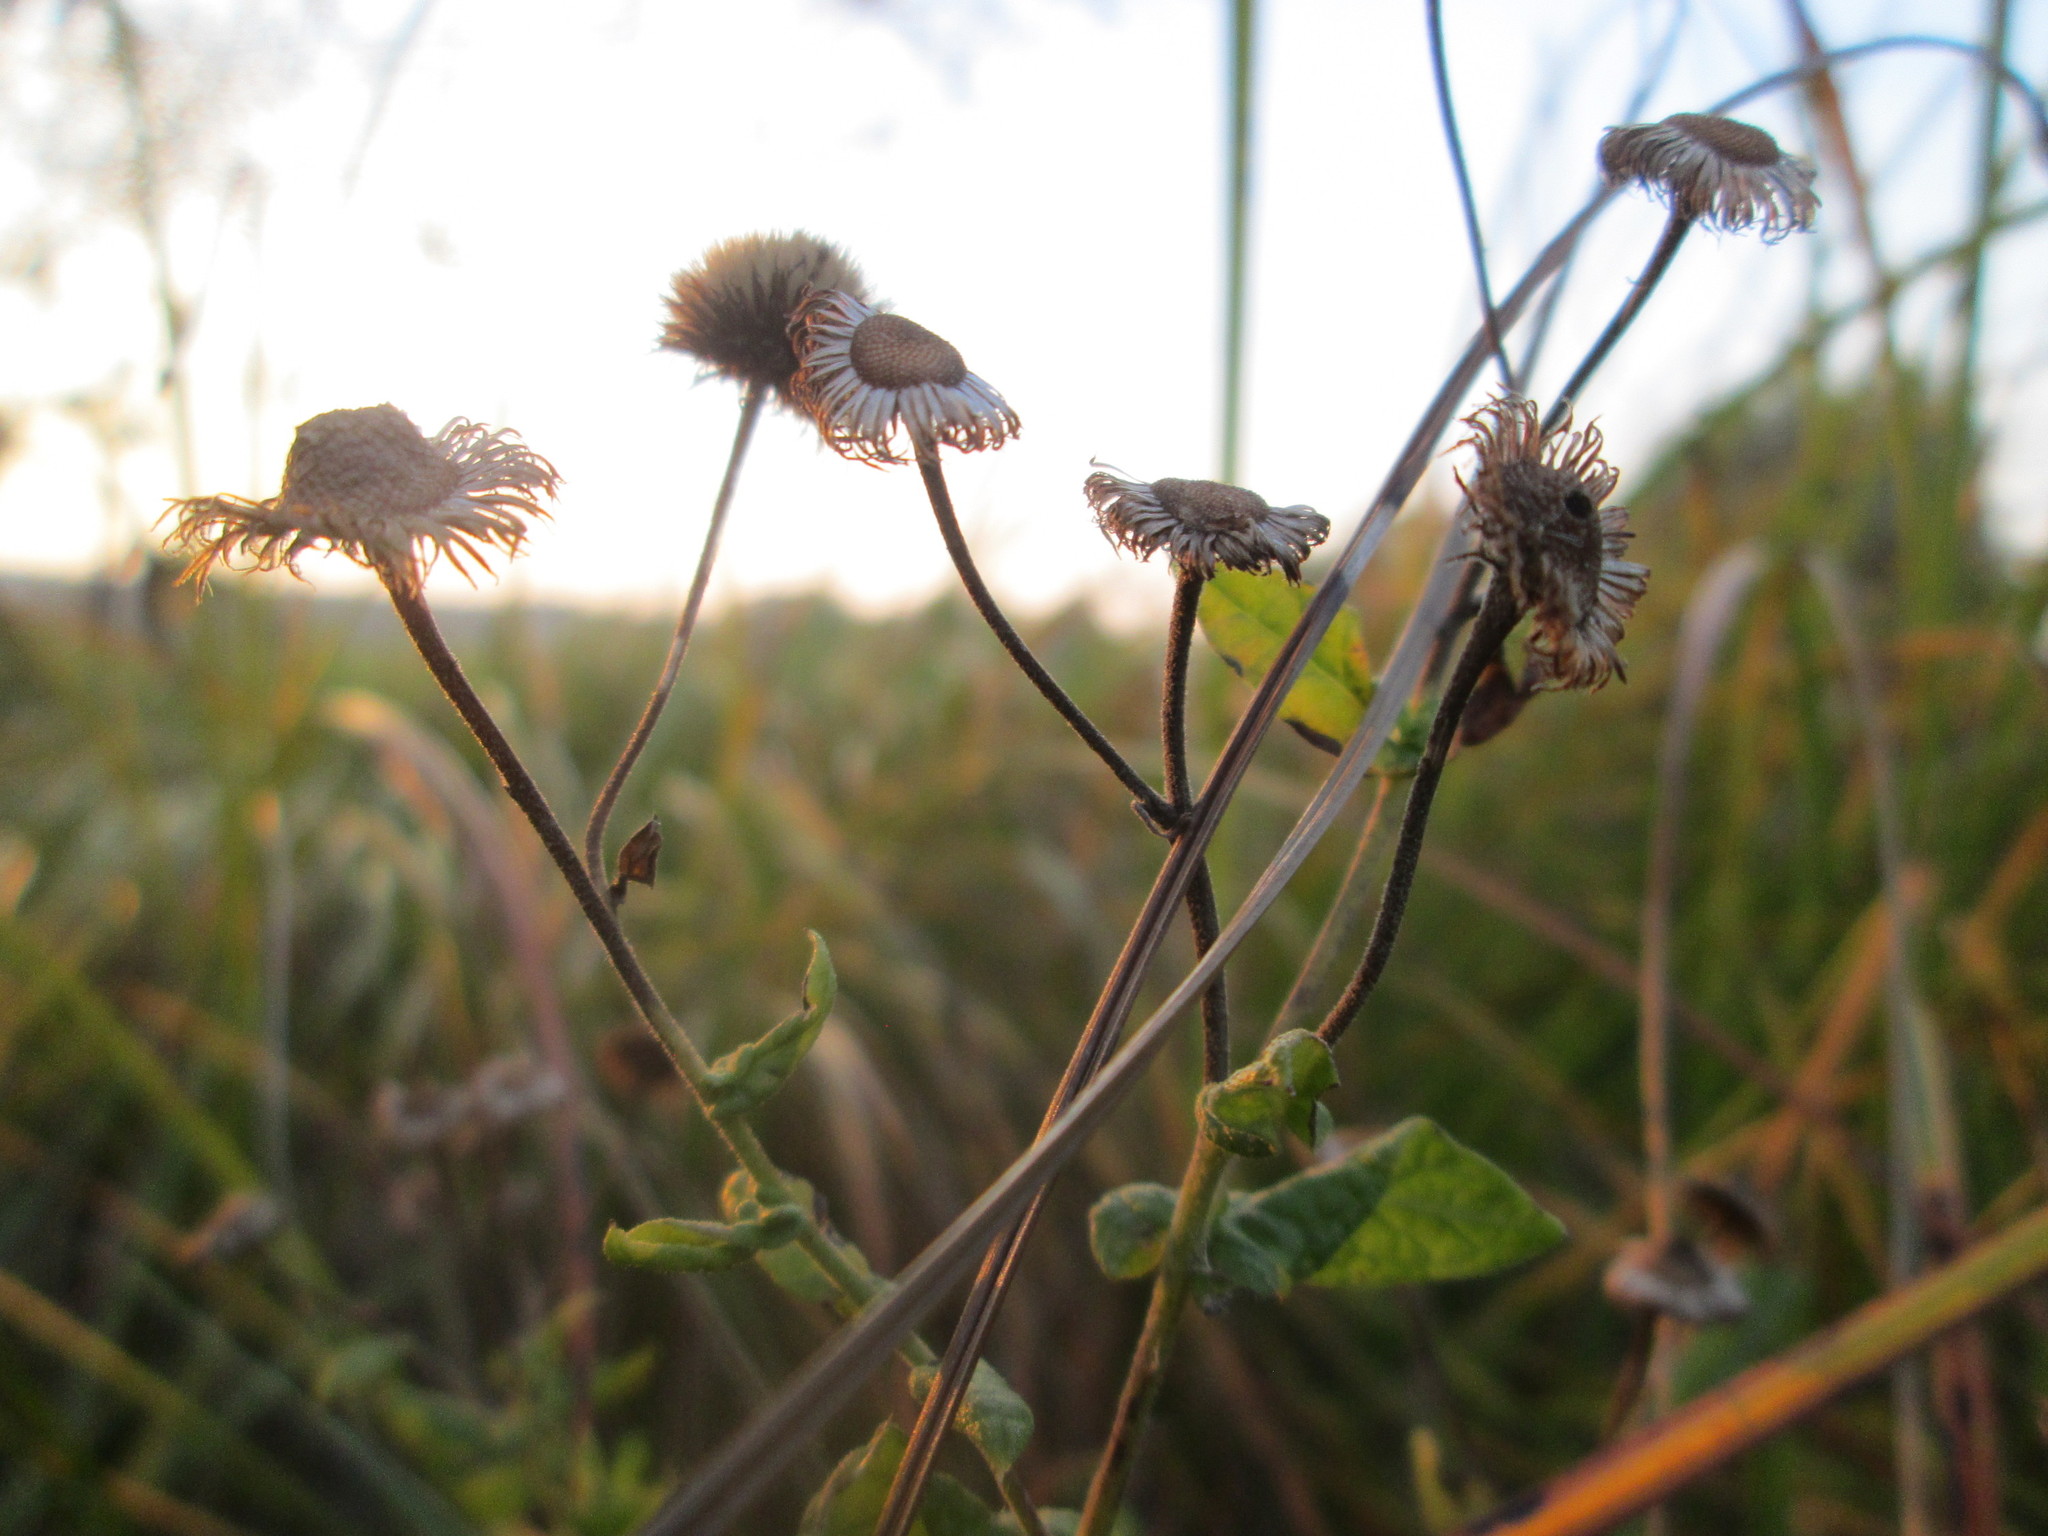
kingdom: Plantae
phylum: Tracheophyta
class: Magnoliopsida
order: Asterales
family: Asteraceae
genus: Pulicaria
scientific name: Pulicaria dysenterica
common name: Common fleabane
